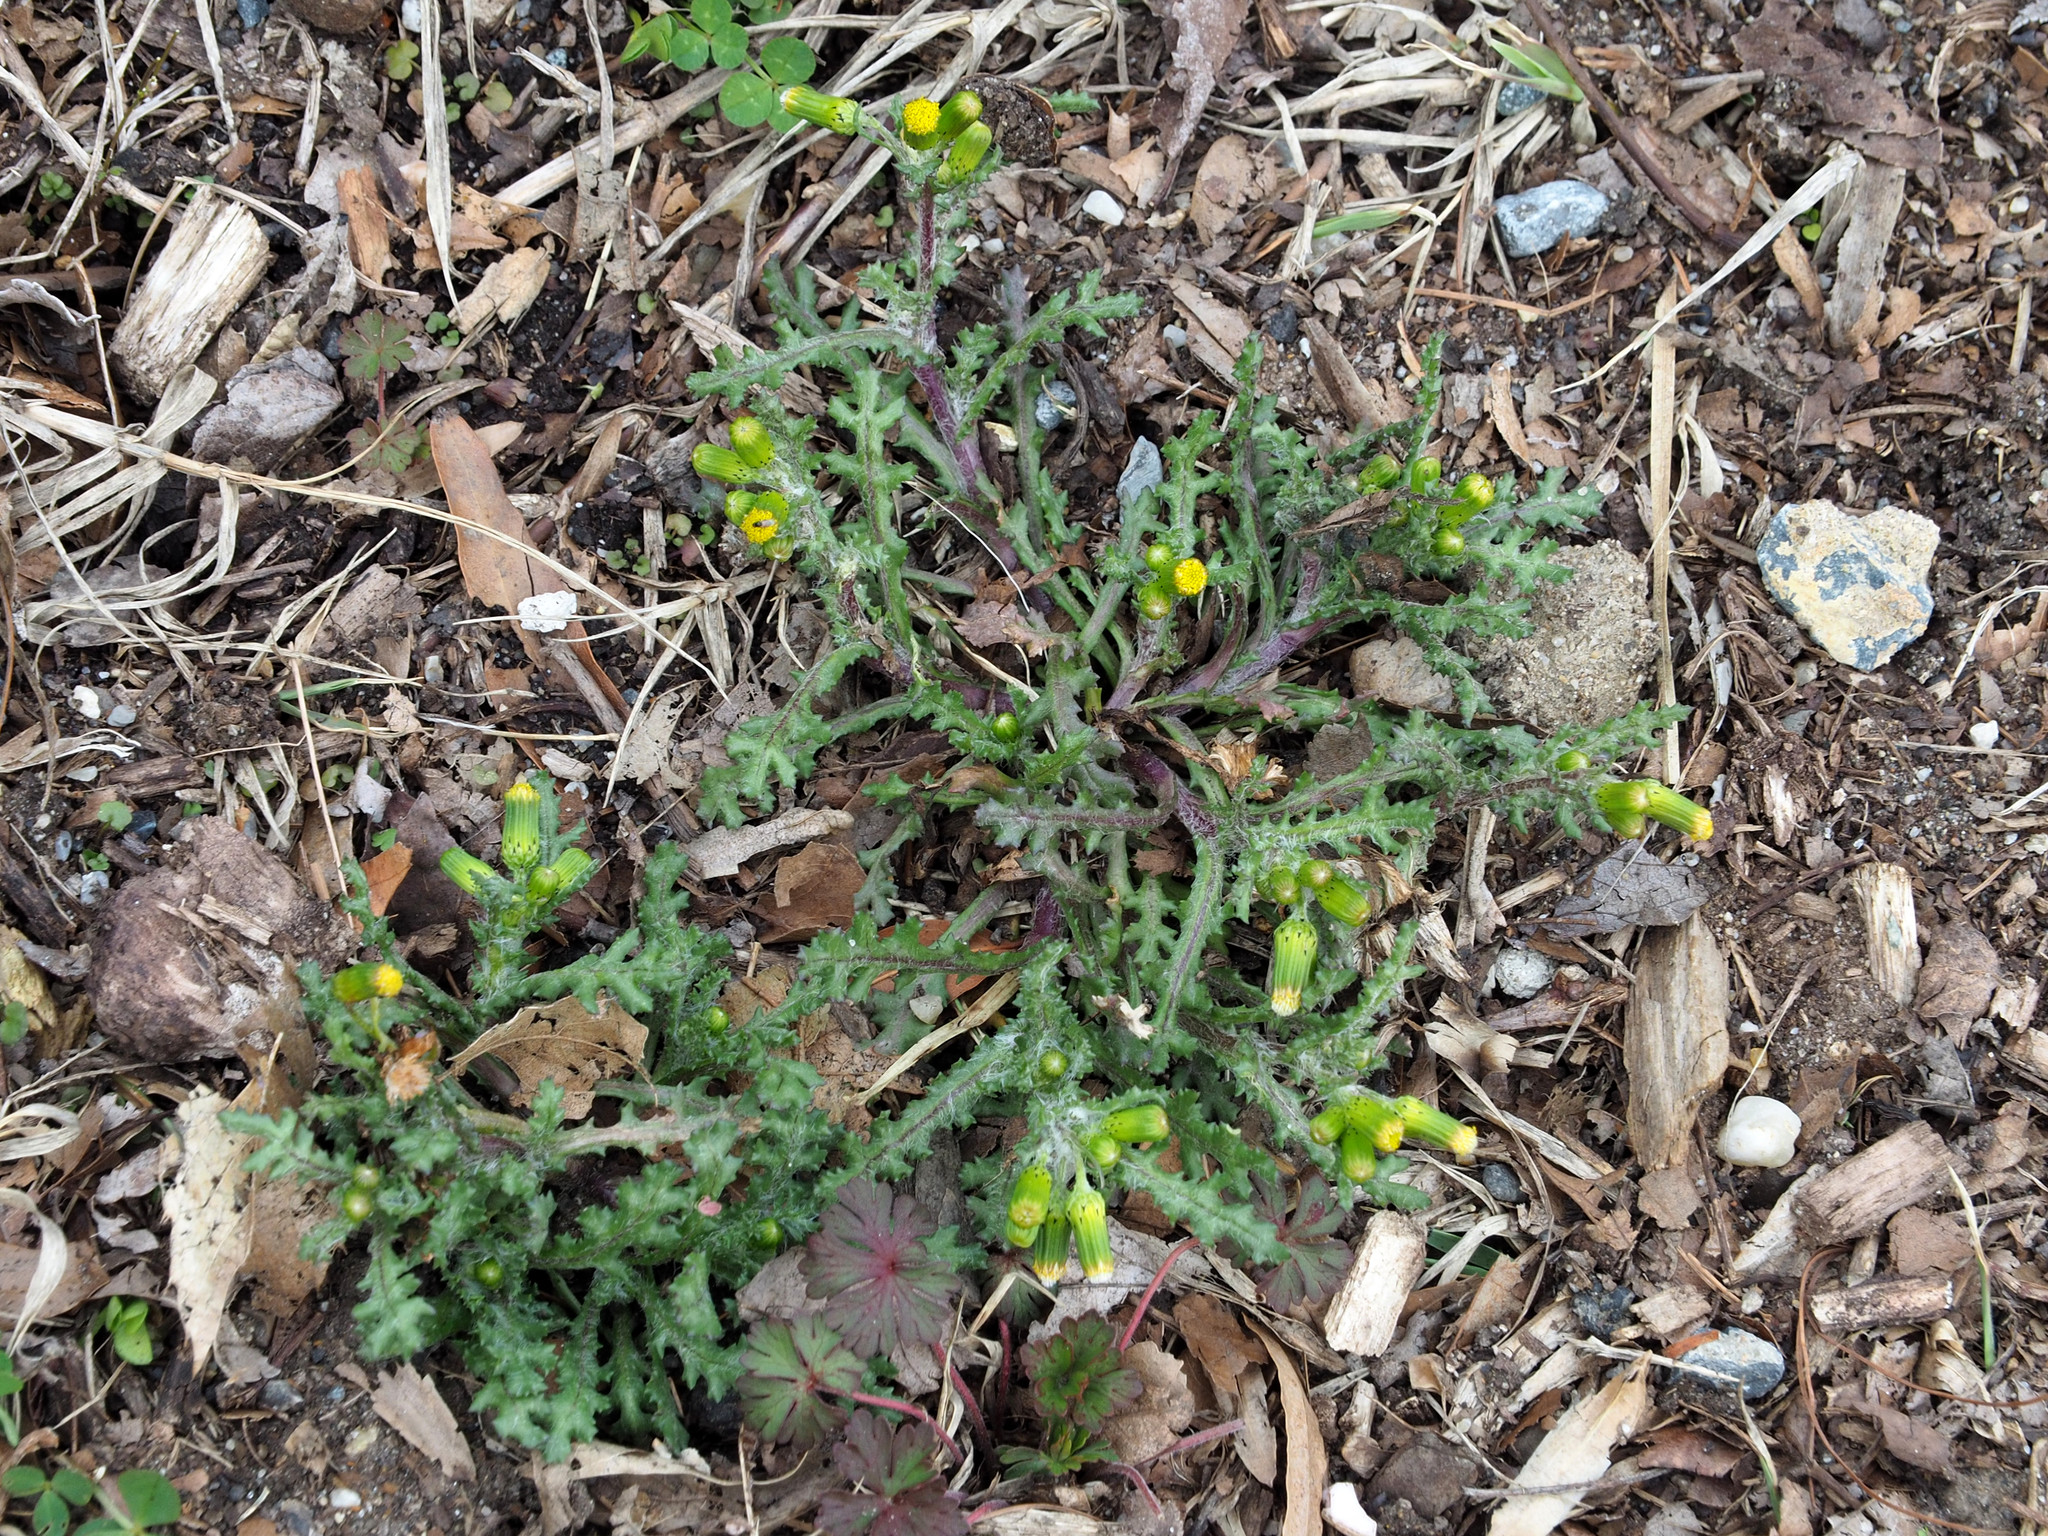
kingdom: Plantae
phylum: Tracheophyta
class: Magnoliopsida
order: Asterales
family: Asteraceae
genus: Senecio
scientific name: Senecio vulgaris
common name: Old-man-in-the-spring
